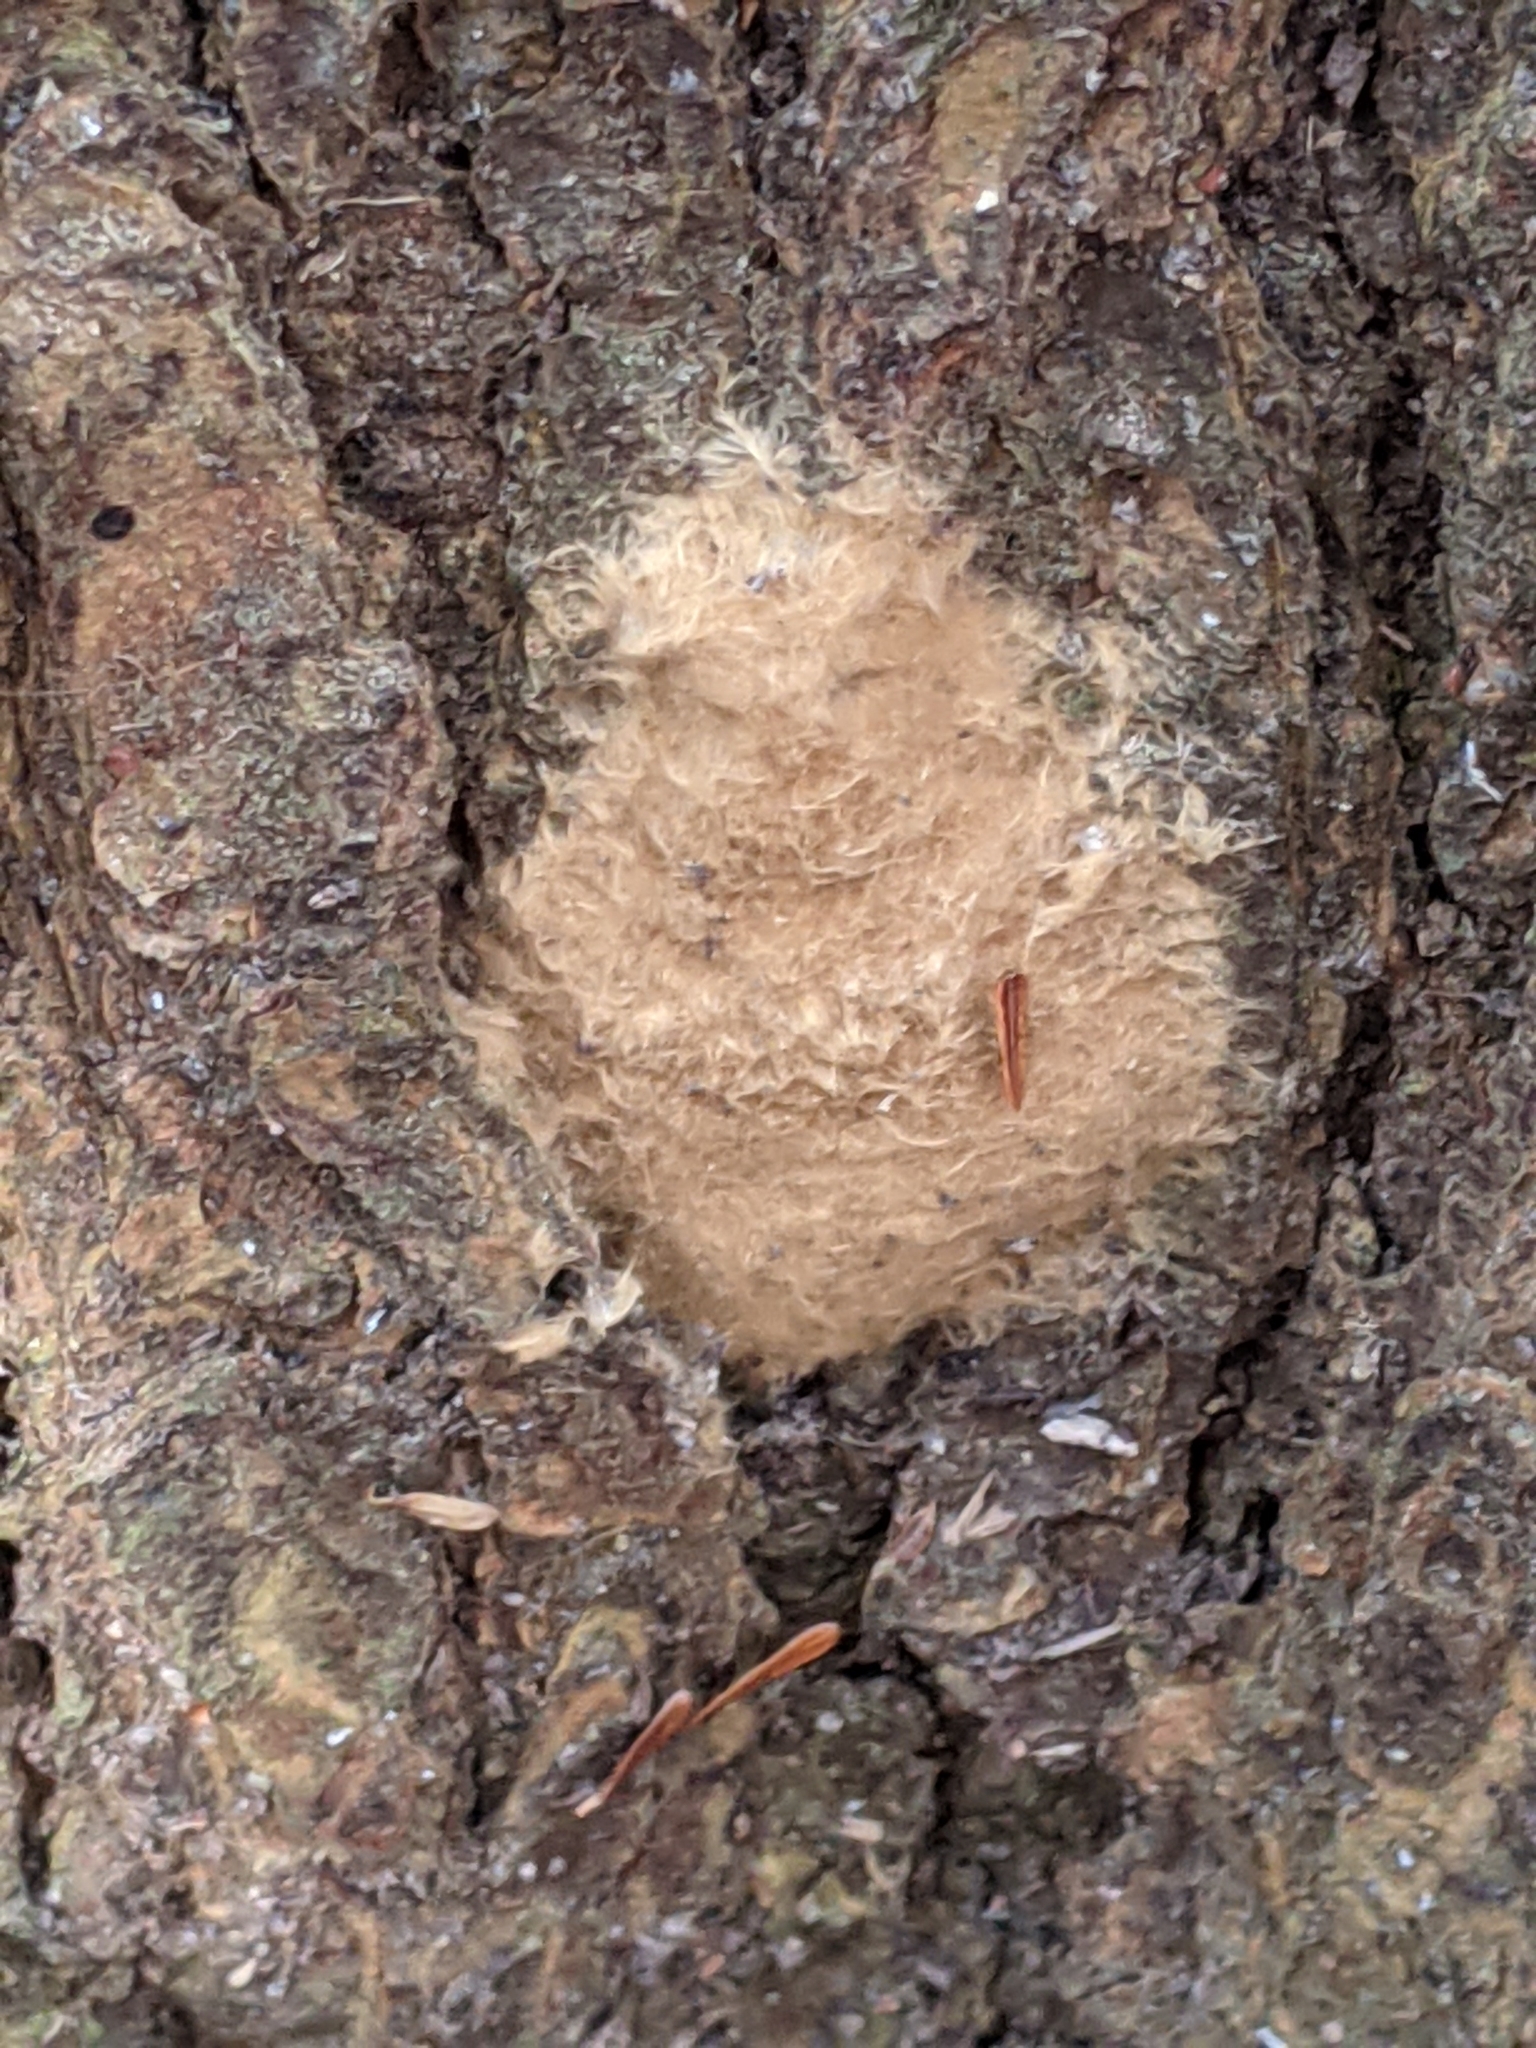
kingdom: Animalia
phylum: Arthropoda
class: Insecta
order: Lepidoptera
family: Erebidae
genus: Lymantria
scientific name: Lymantria dispar
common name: Gypsy moth
